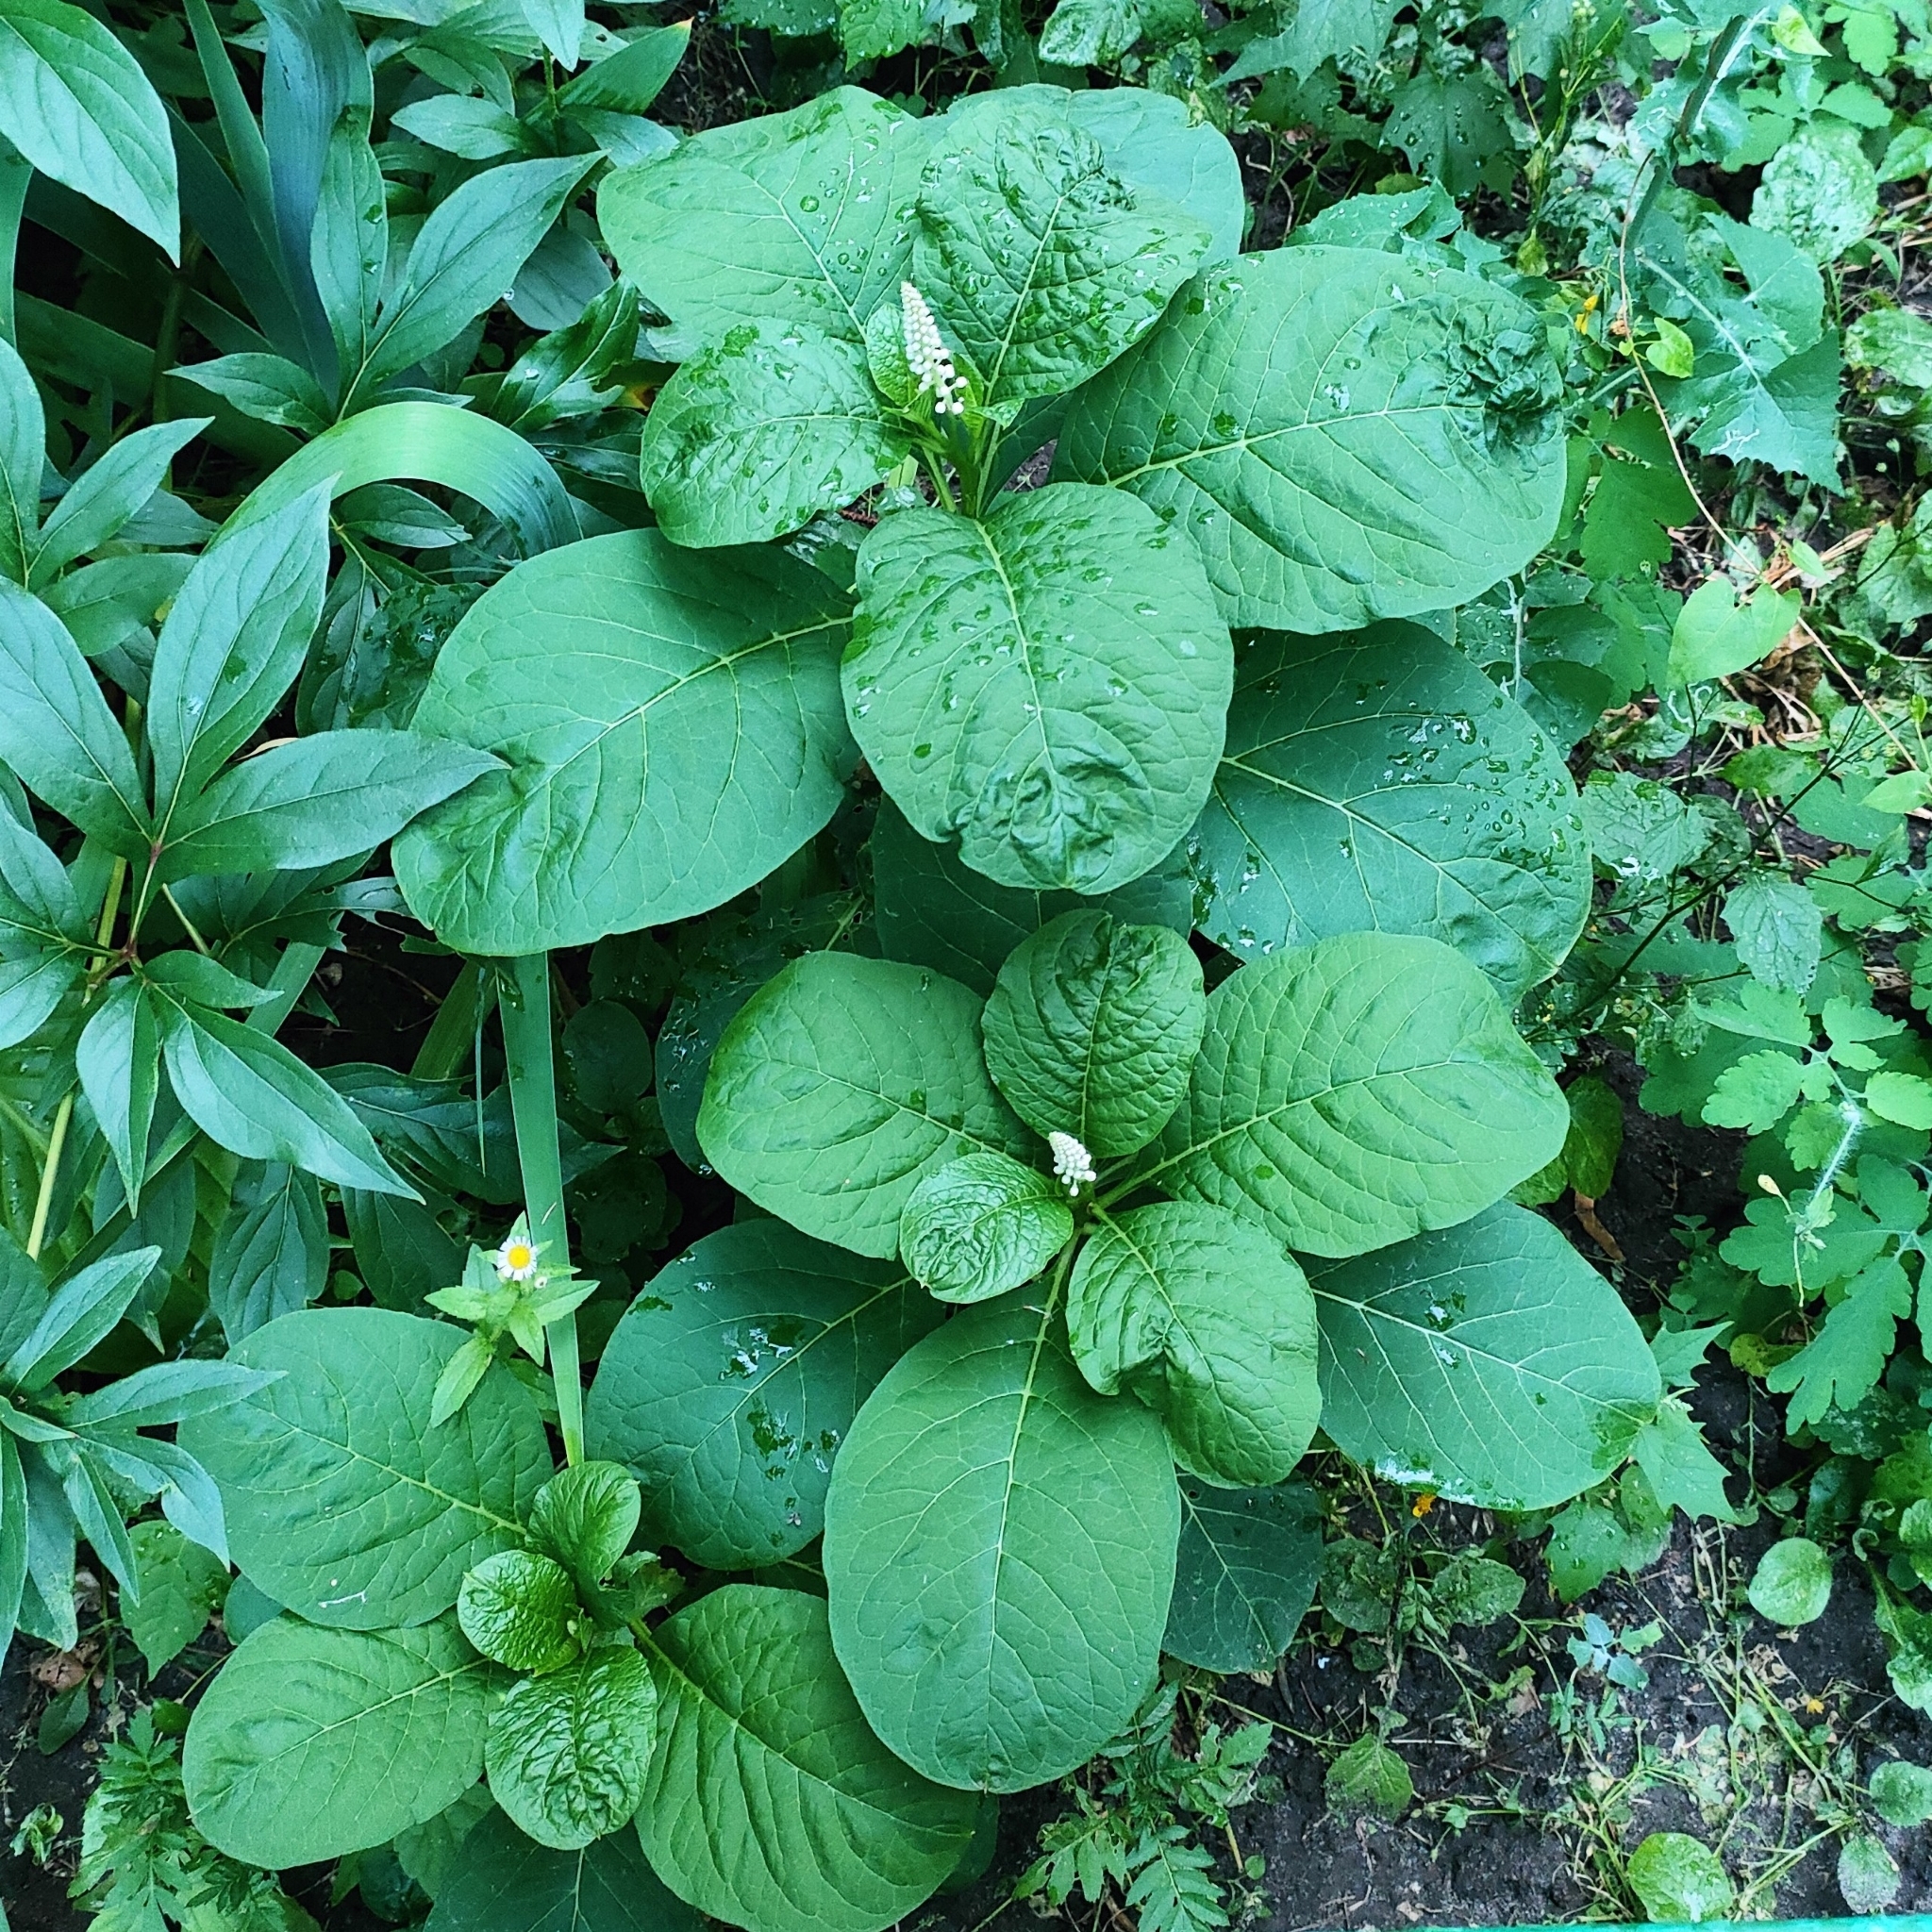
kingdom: Plantae
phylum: Tracheophyta
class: Magnoliopsida
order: Caryophyllales
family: Phytolaccaceae
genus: Phytolacca
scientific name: Phytolacca acinosa
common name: Indian pokeweed
